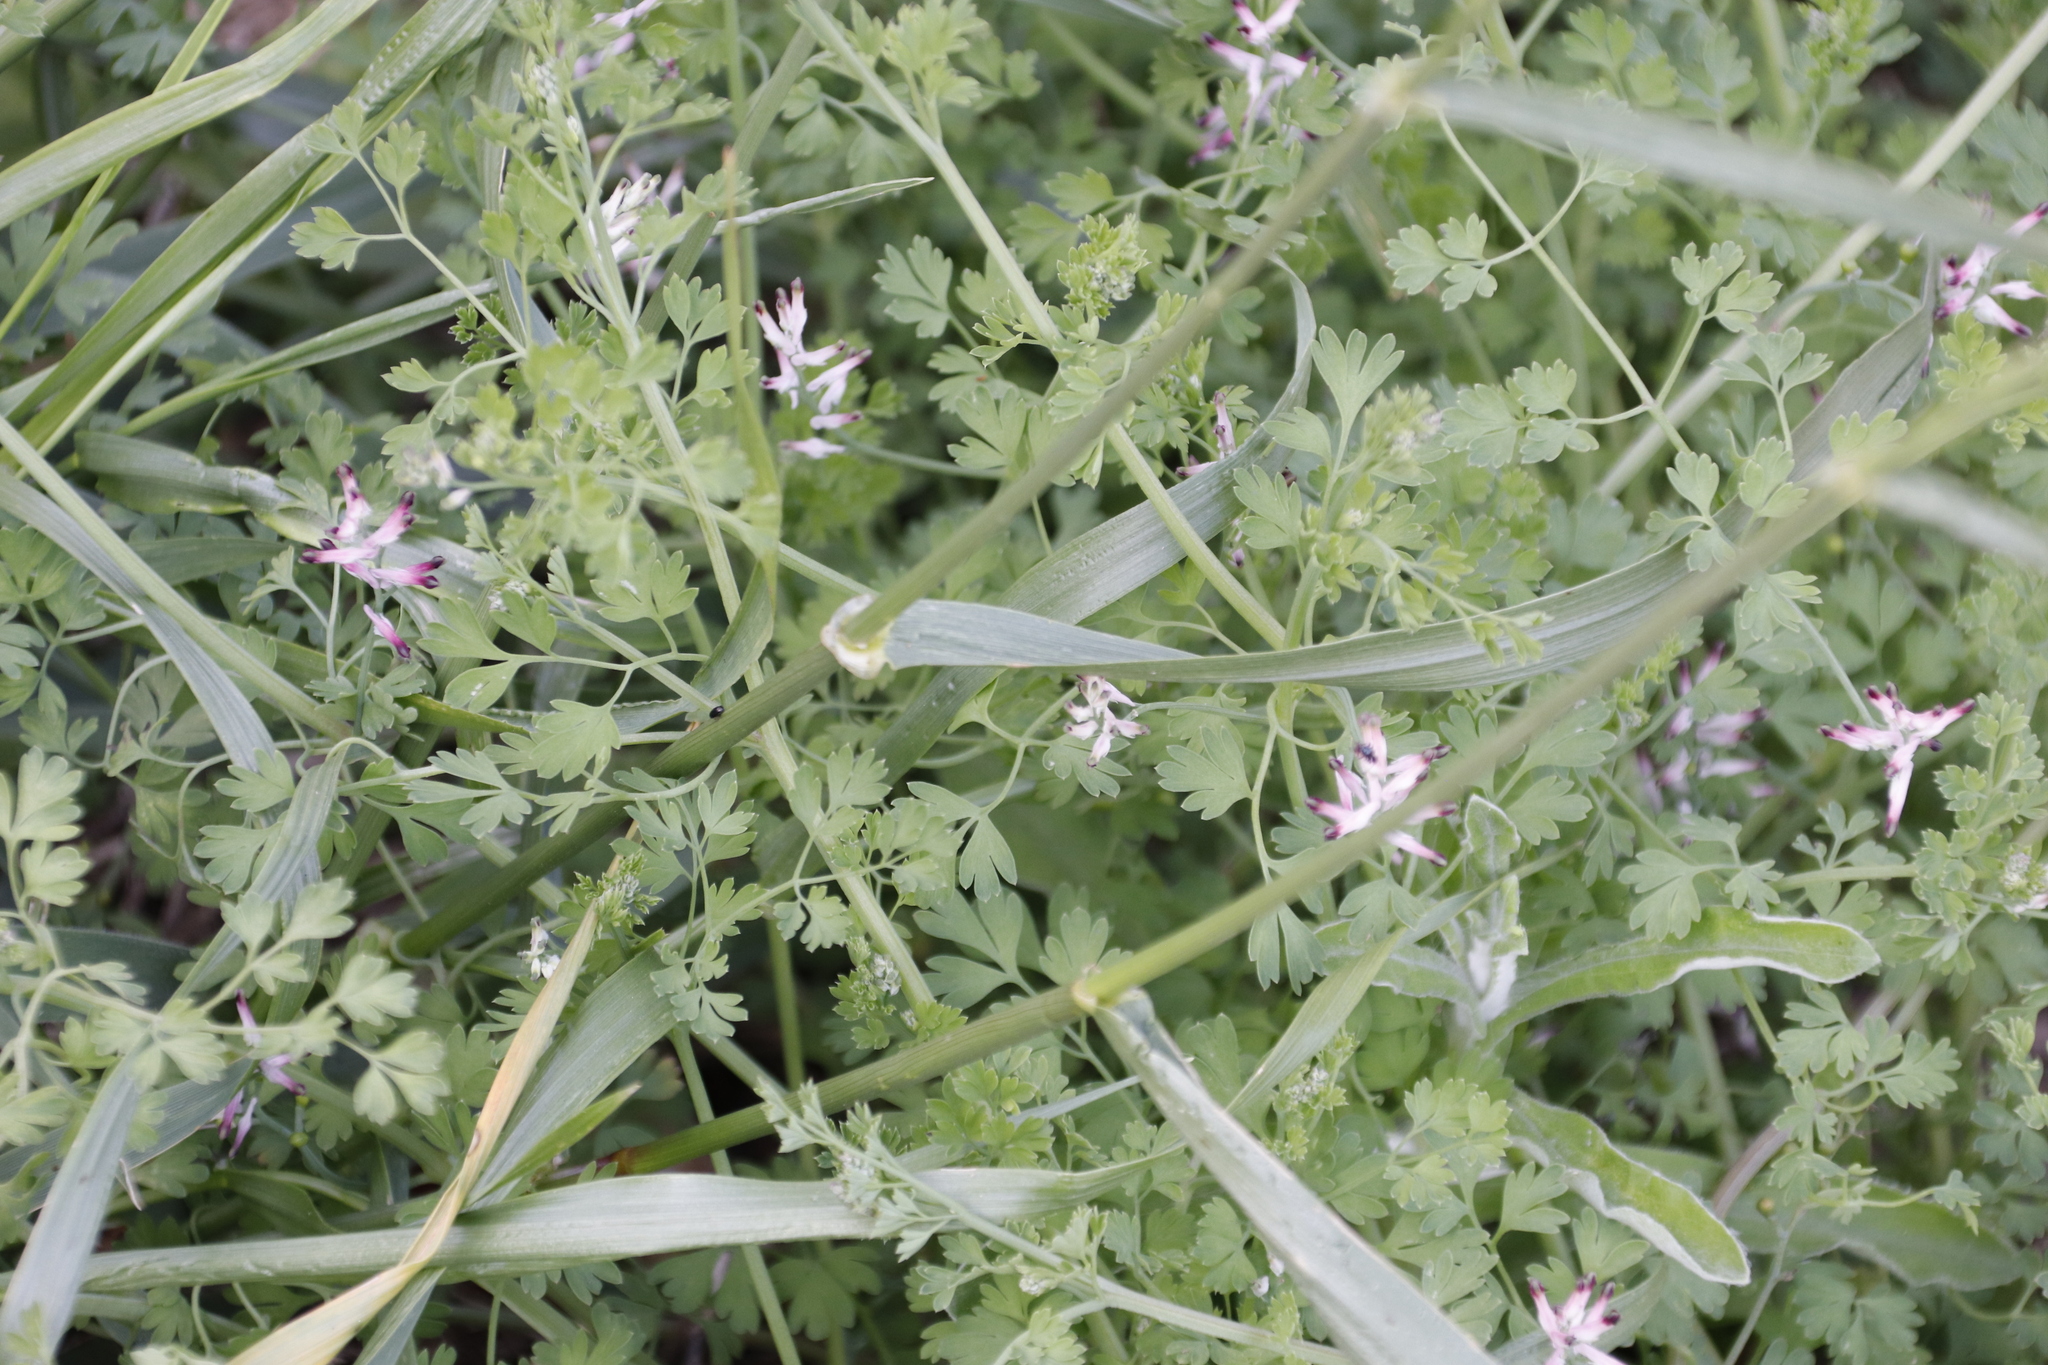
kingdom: Plantae
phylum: Tracheophyta
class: Magnoliopsida
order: Ranunculales
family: Papaveraceae
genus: Fumaria
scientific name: Fumaria muralis
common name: Common ramping-fumitory
